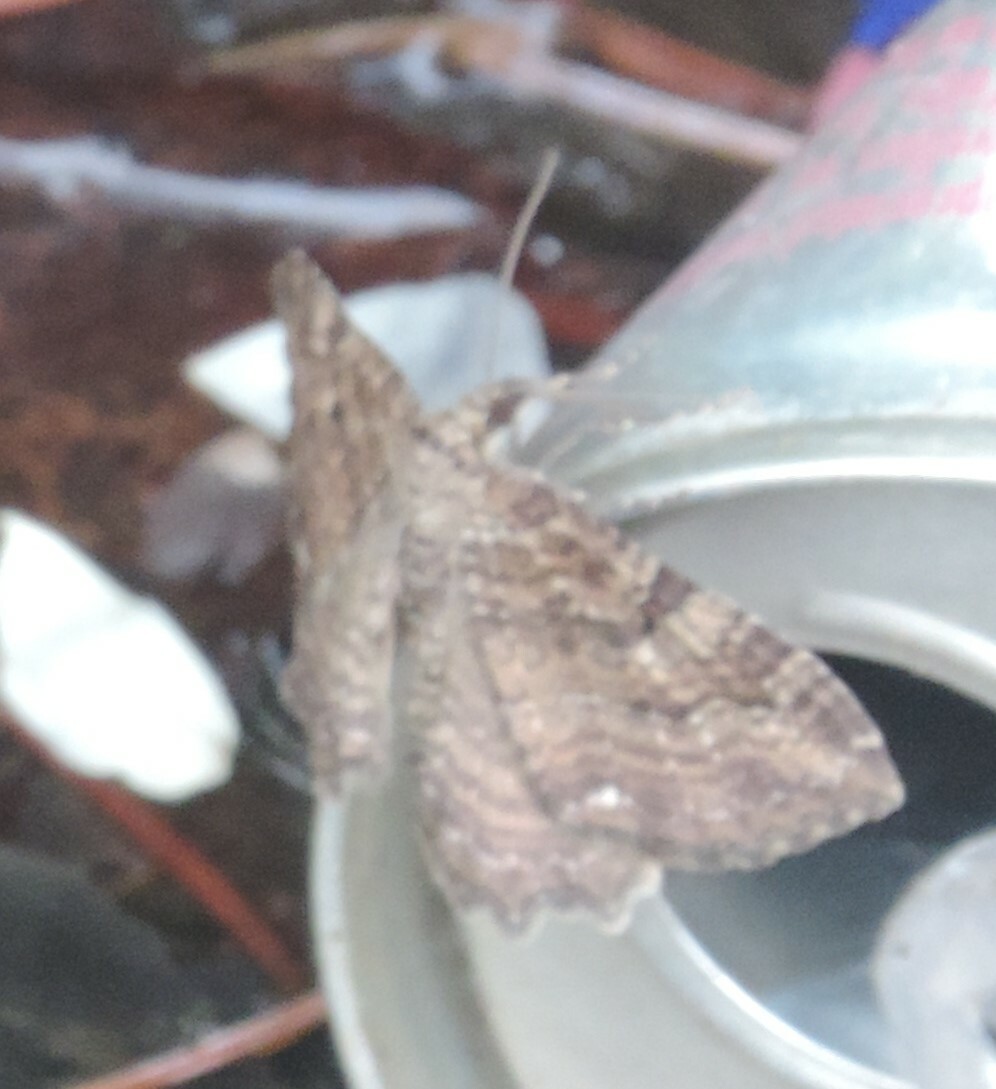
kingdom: Animalia
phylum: Arthropoda
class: Insecta
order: Lepidoptera
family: Geometridae
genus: Rheumaptera
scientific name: Rheumaptera
